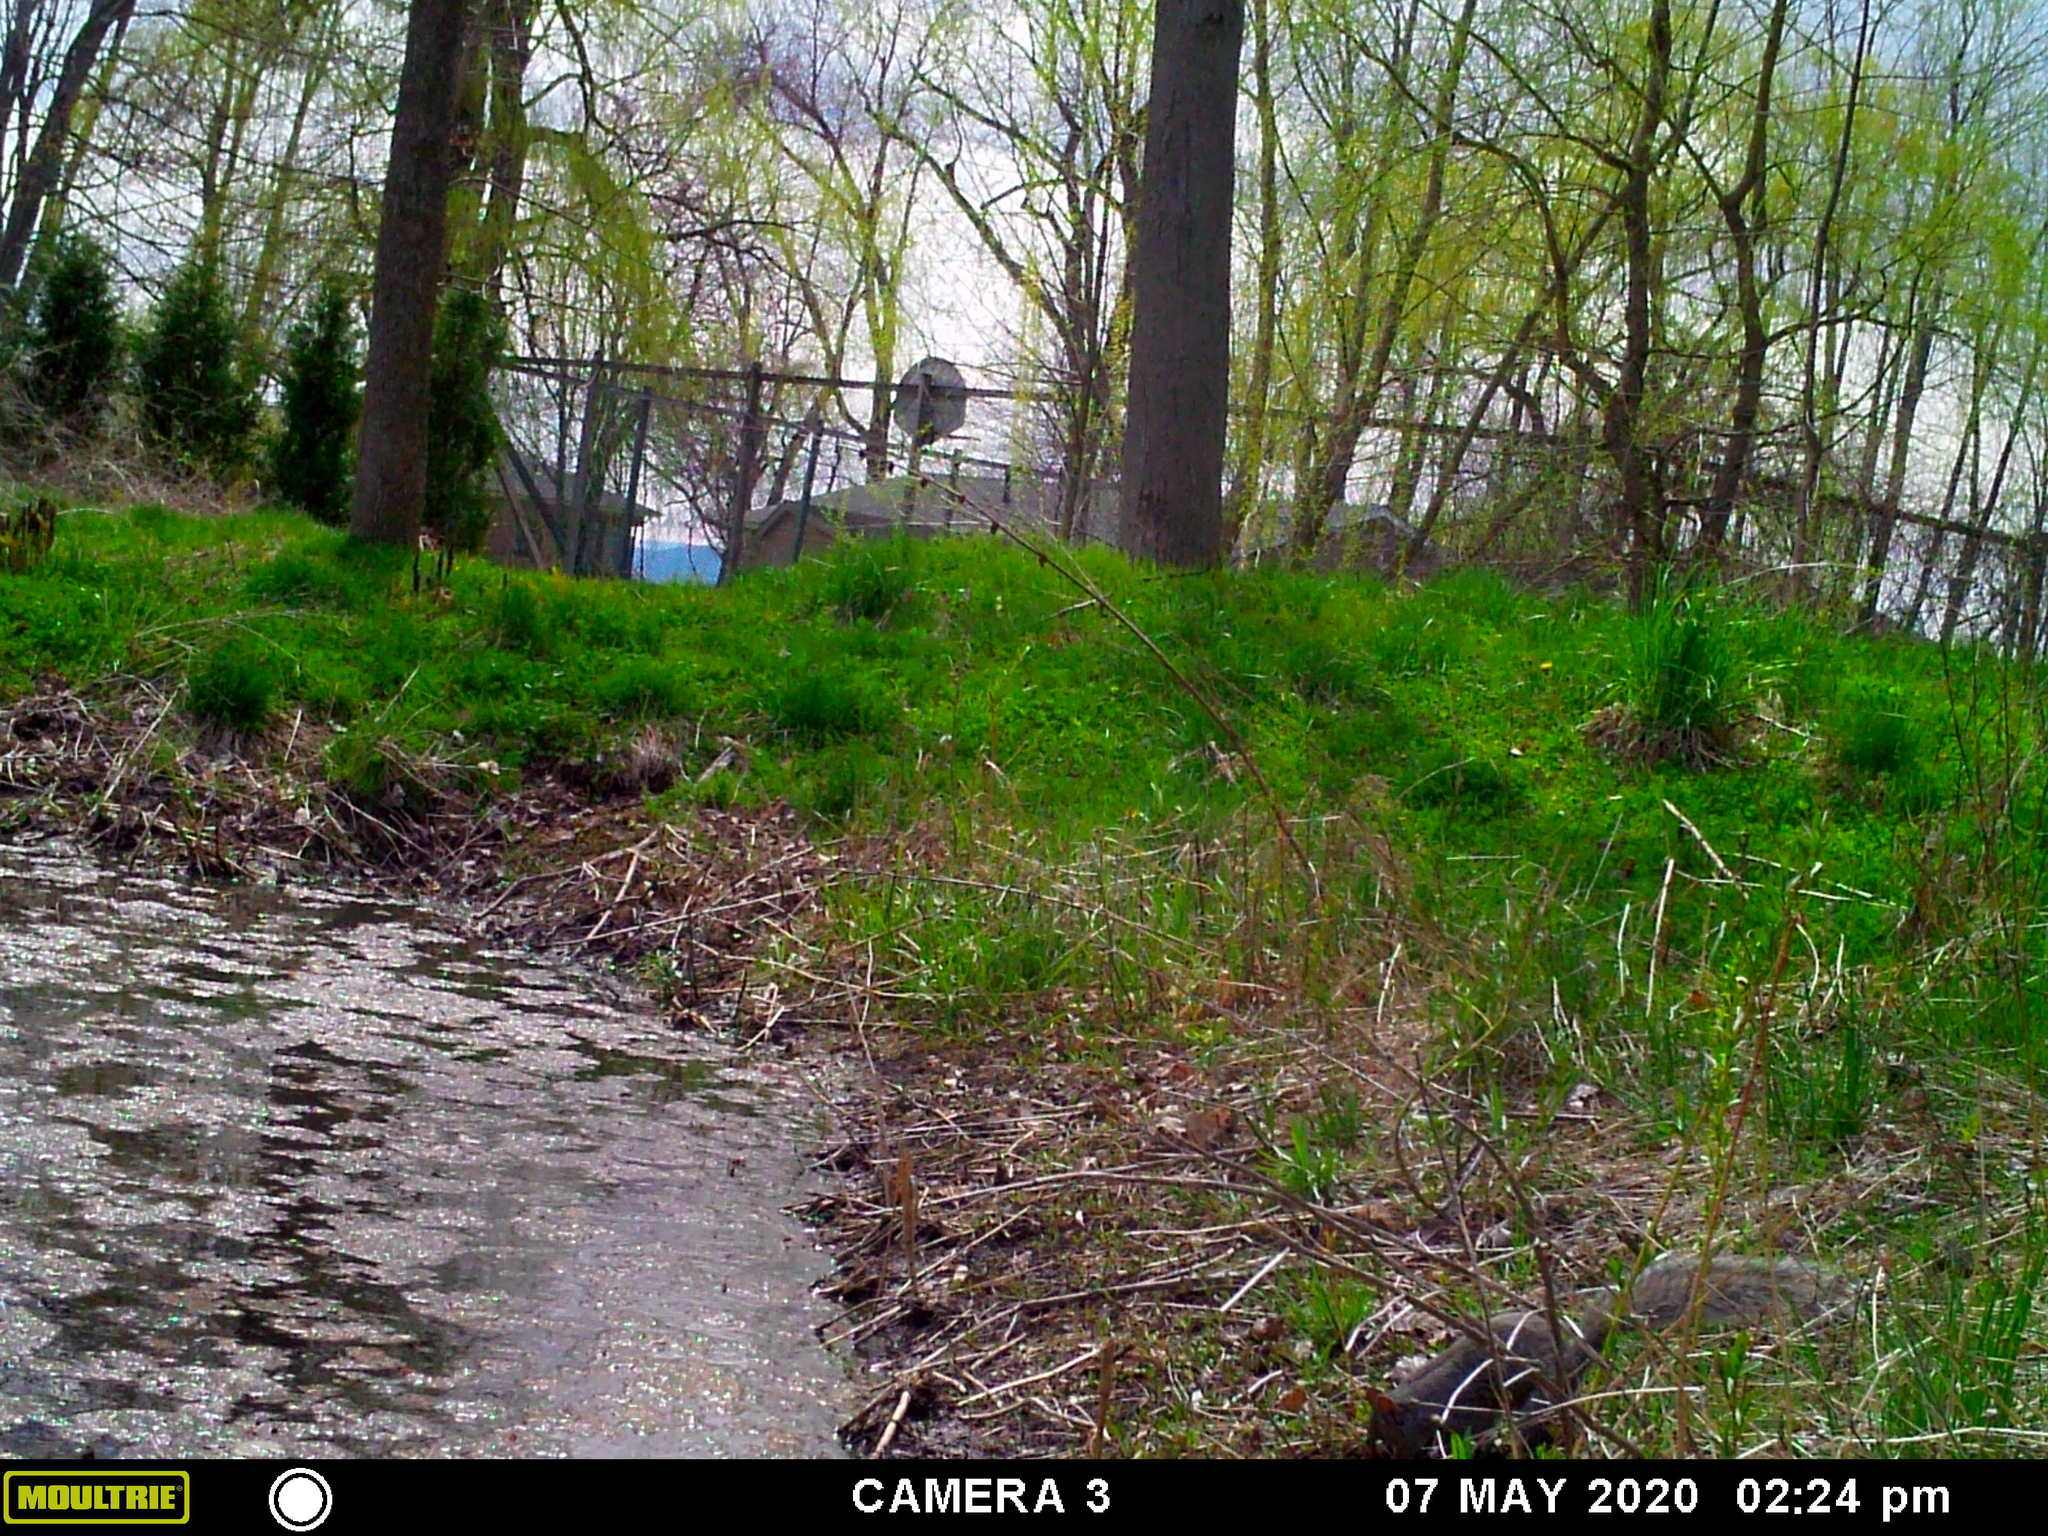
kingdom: Animalia
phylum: Chordata
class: Mammalia
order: Rodentia
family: Sciuridae
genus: Sciurus
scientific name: Sciurus carolinensis
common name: Eastern gray squirrel
